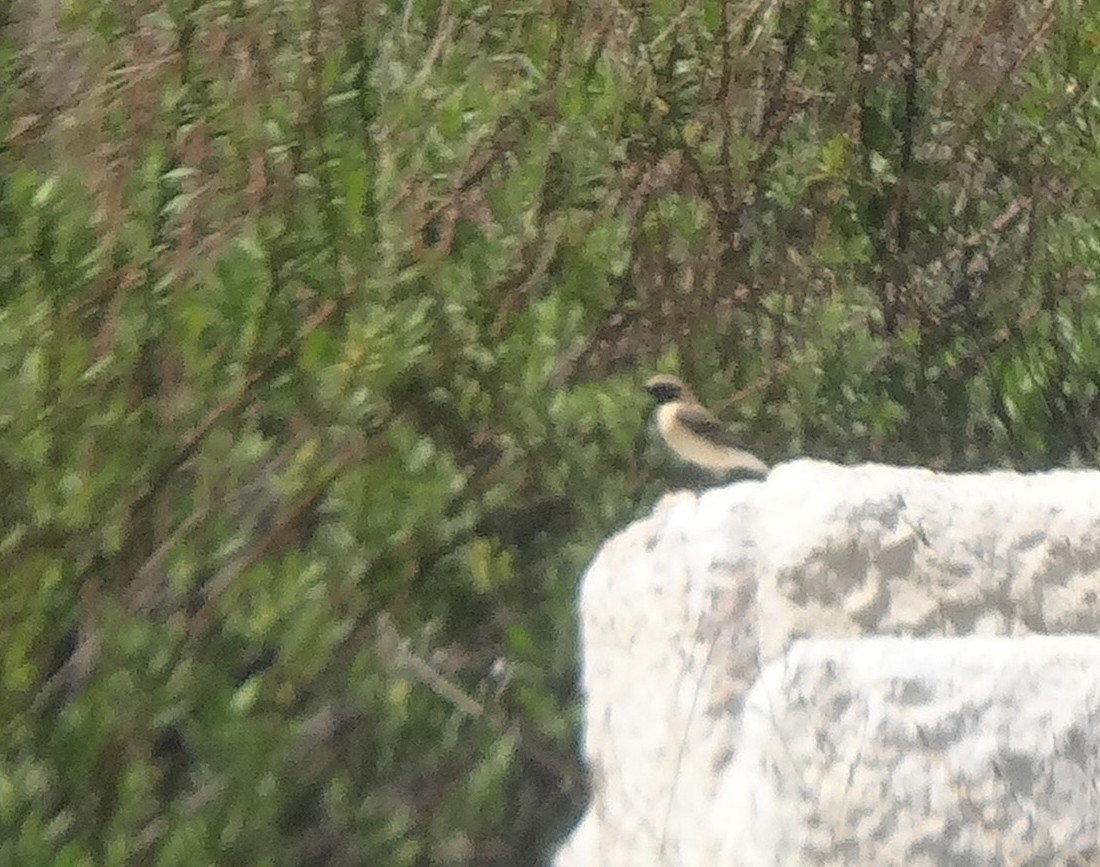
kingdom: Animalia
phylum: Chordata
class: Aves
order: Passeriformes
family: Muscicapidae
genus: Oenanthe
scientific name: Oenanthe hispanica
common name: Black-eared wheatear
